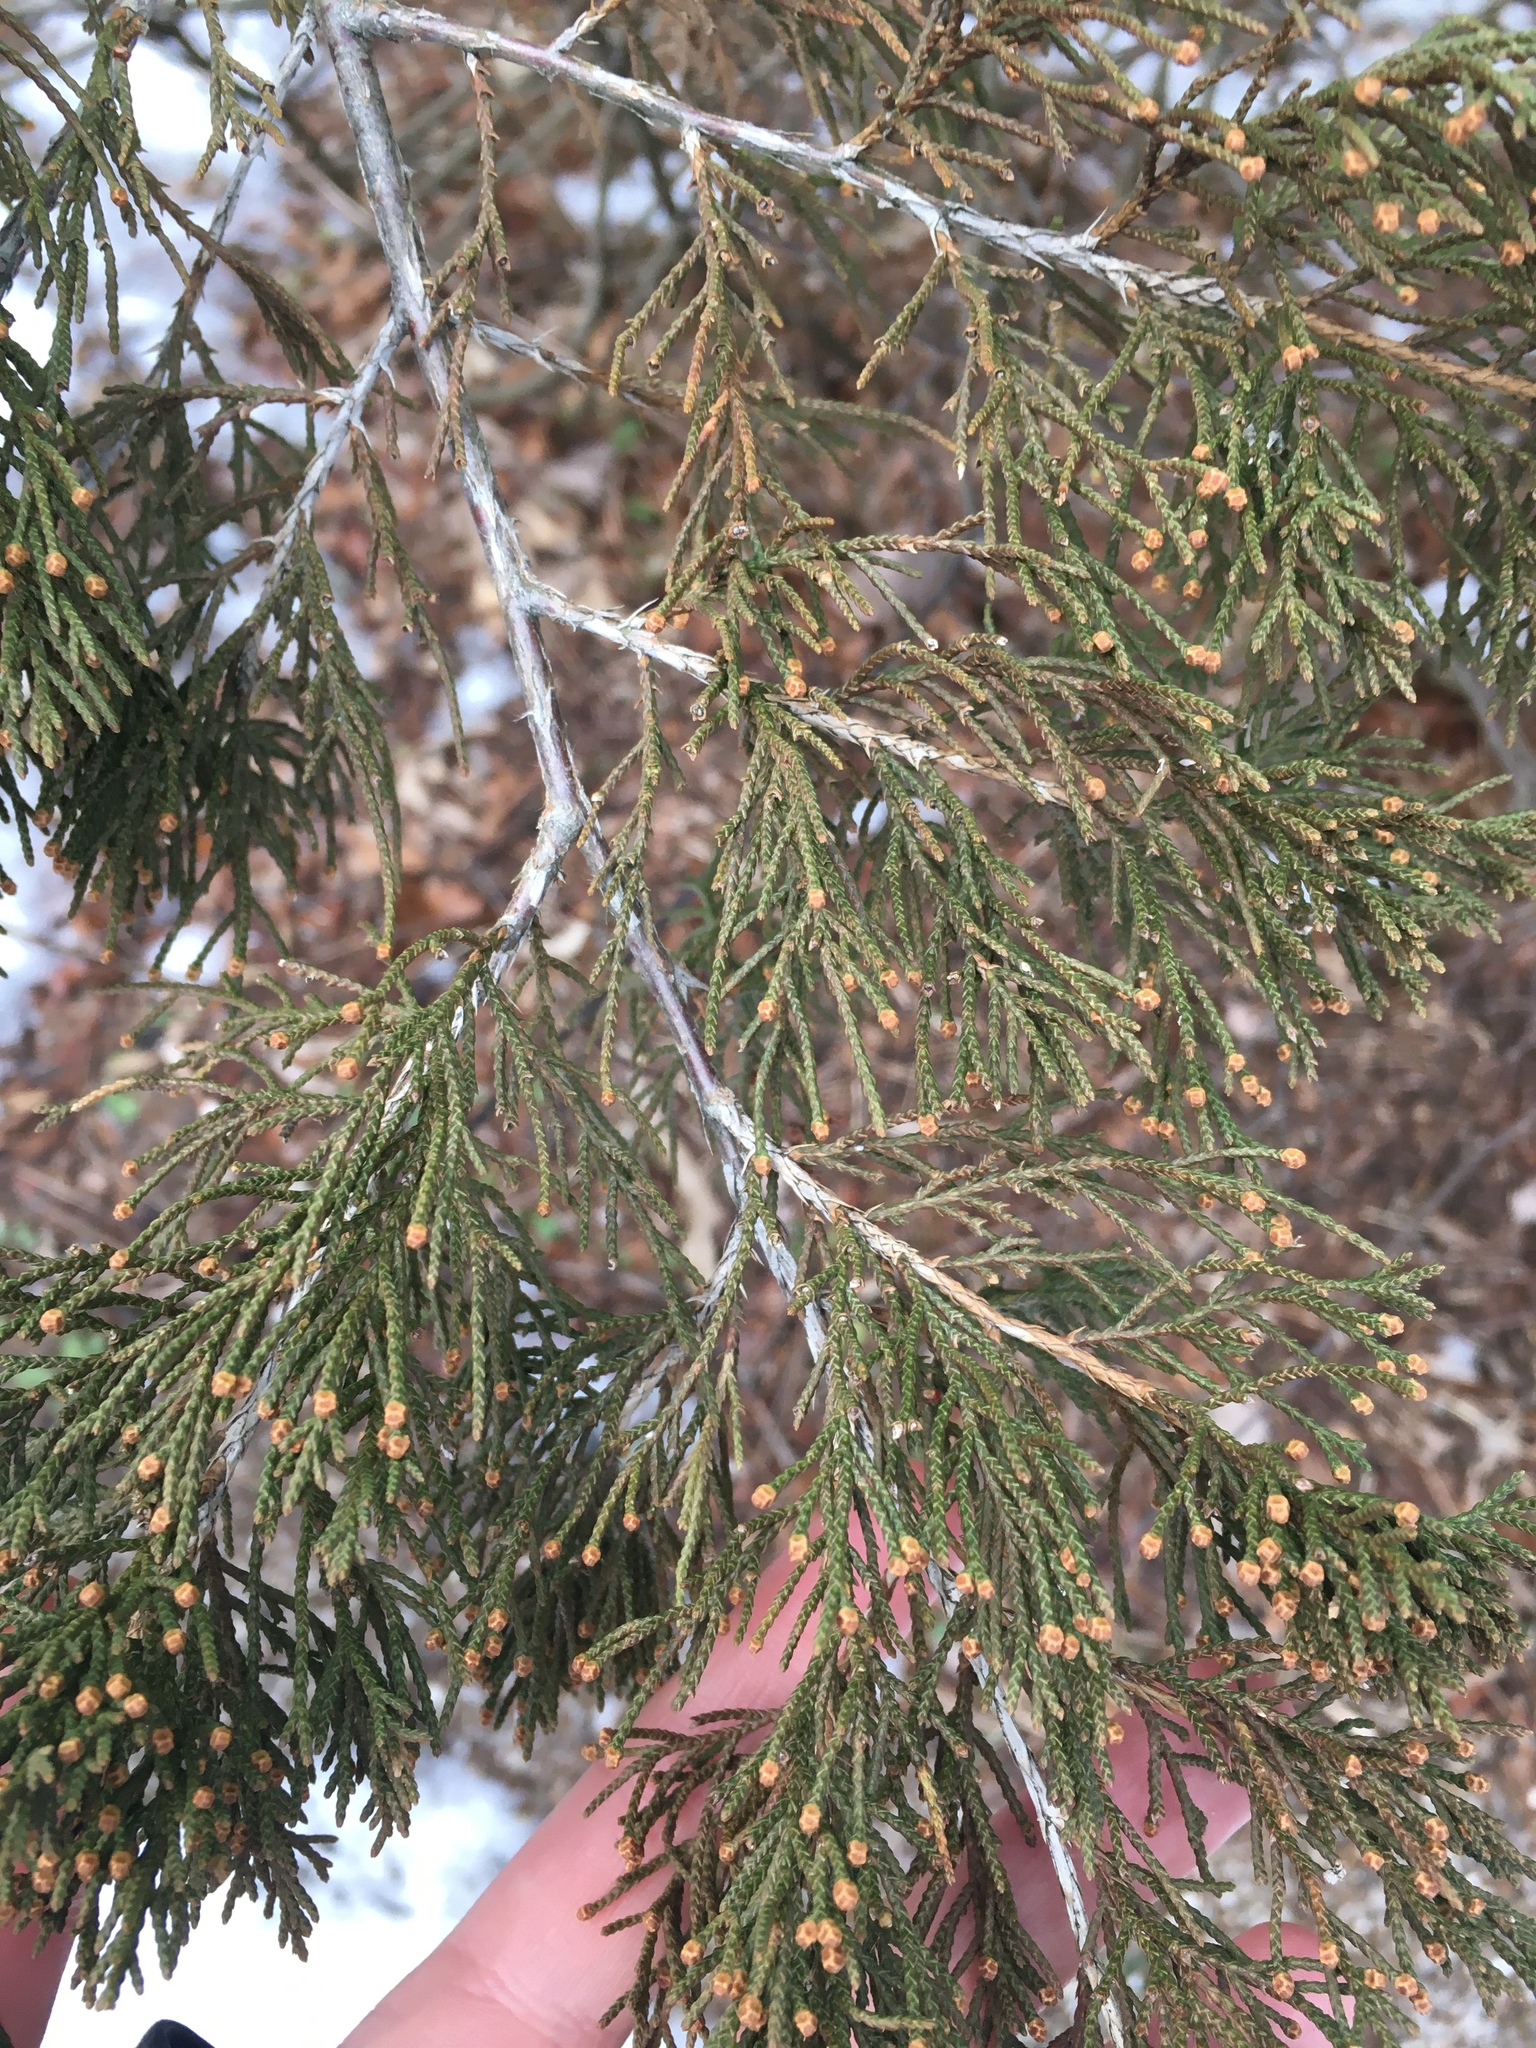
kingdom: Plantae
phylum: Tracheophyta
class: Pinopsida
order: Pinales
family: Cupressaceae
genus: Juniperus
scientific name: Juniperus virginiana
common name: Red juniper
